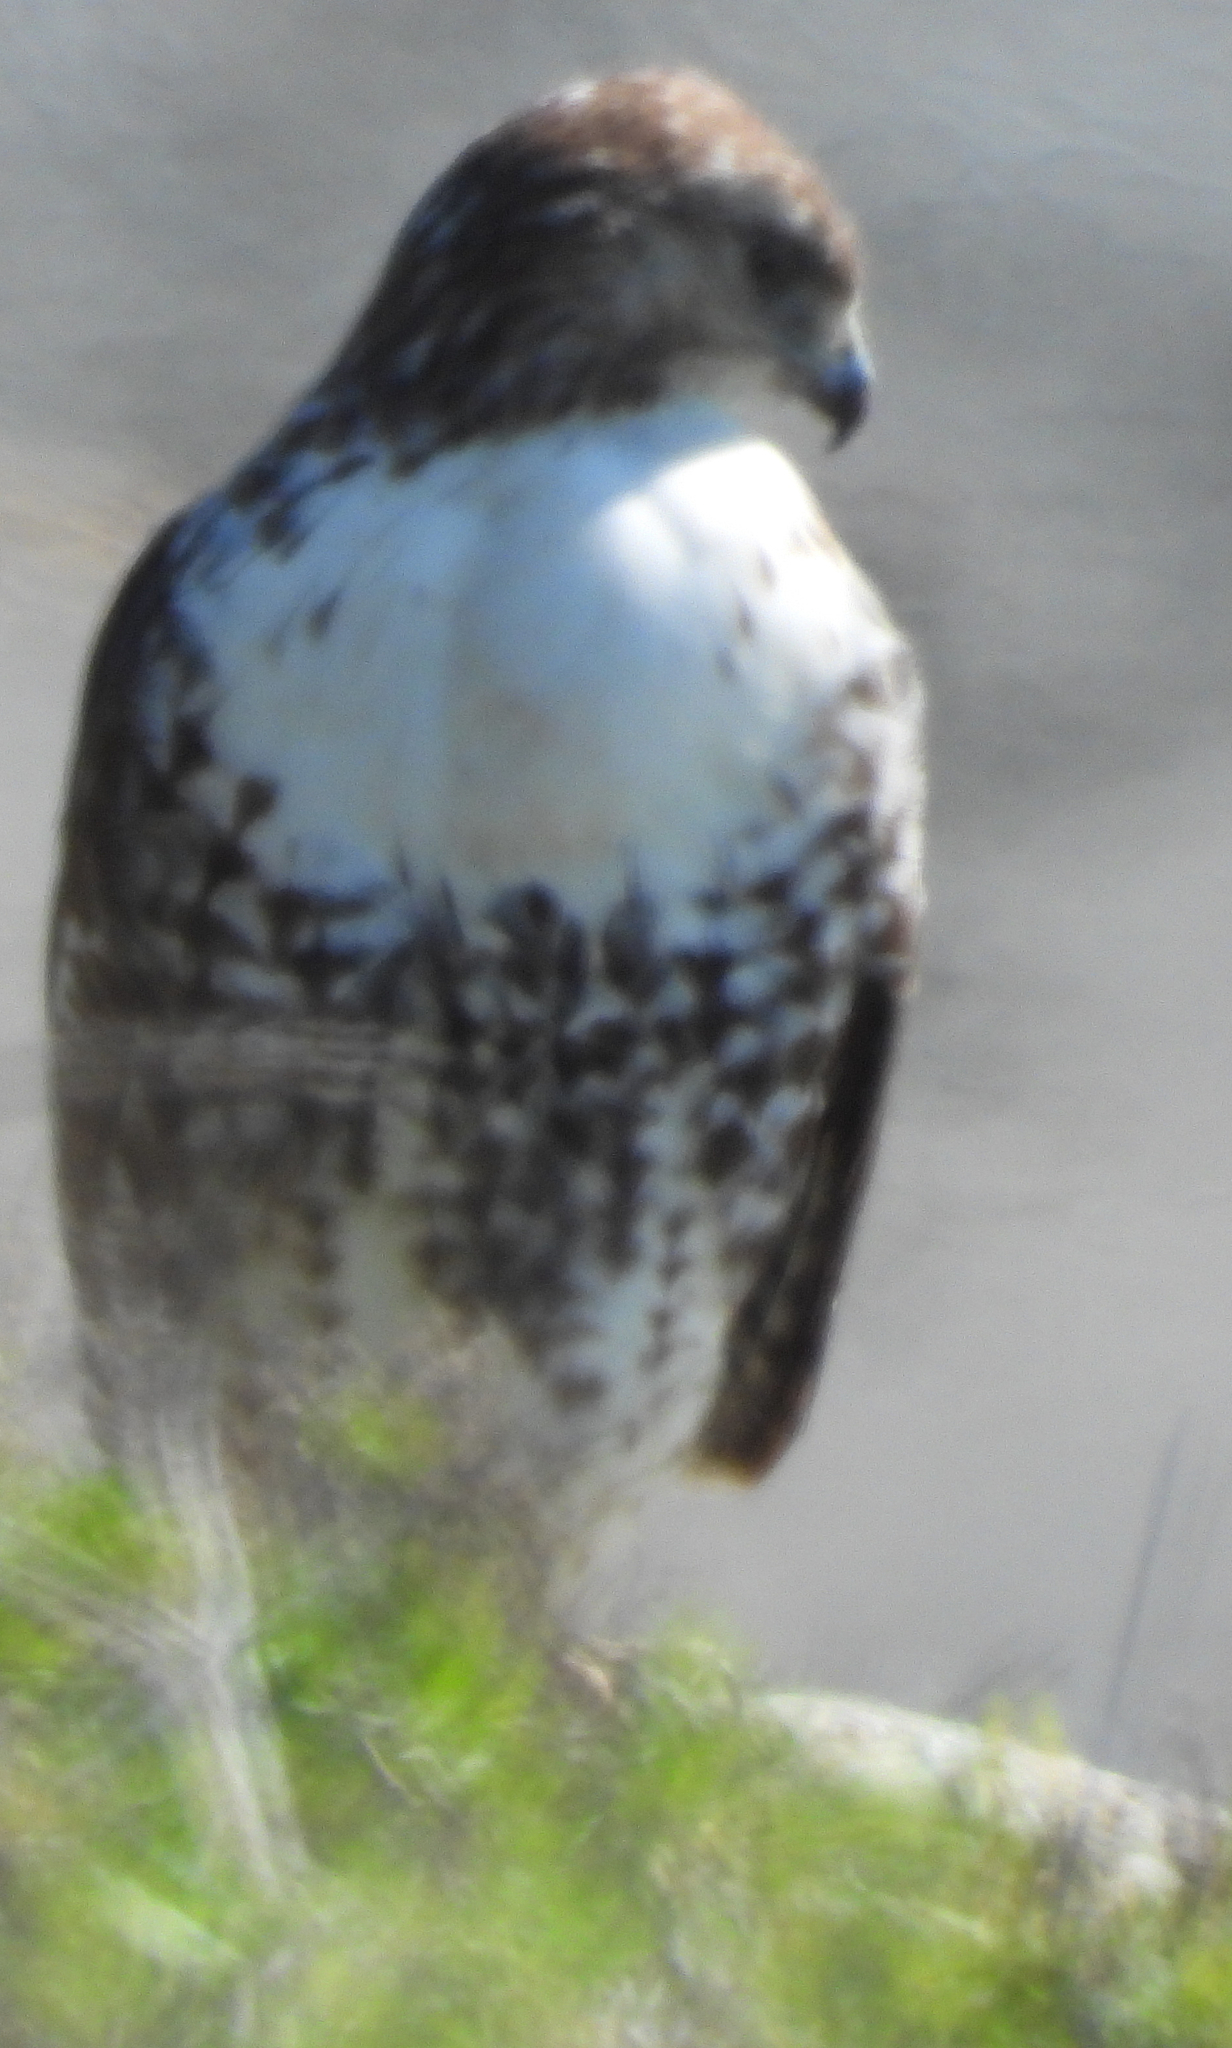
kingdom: Animalia
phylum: Chordata
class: Aves
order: Accipitriformes
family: Accipitridae
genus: Buteo
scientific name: Buteo jamaicensis
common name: Red-tailed hawk
